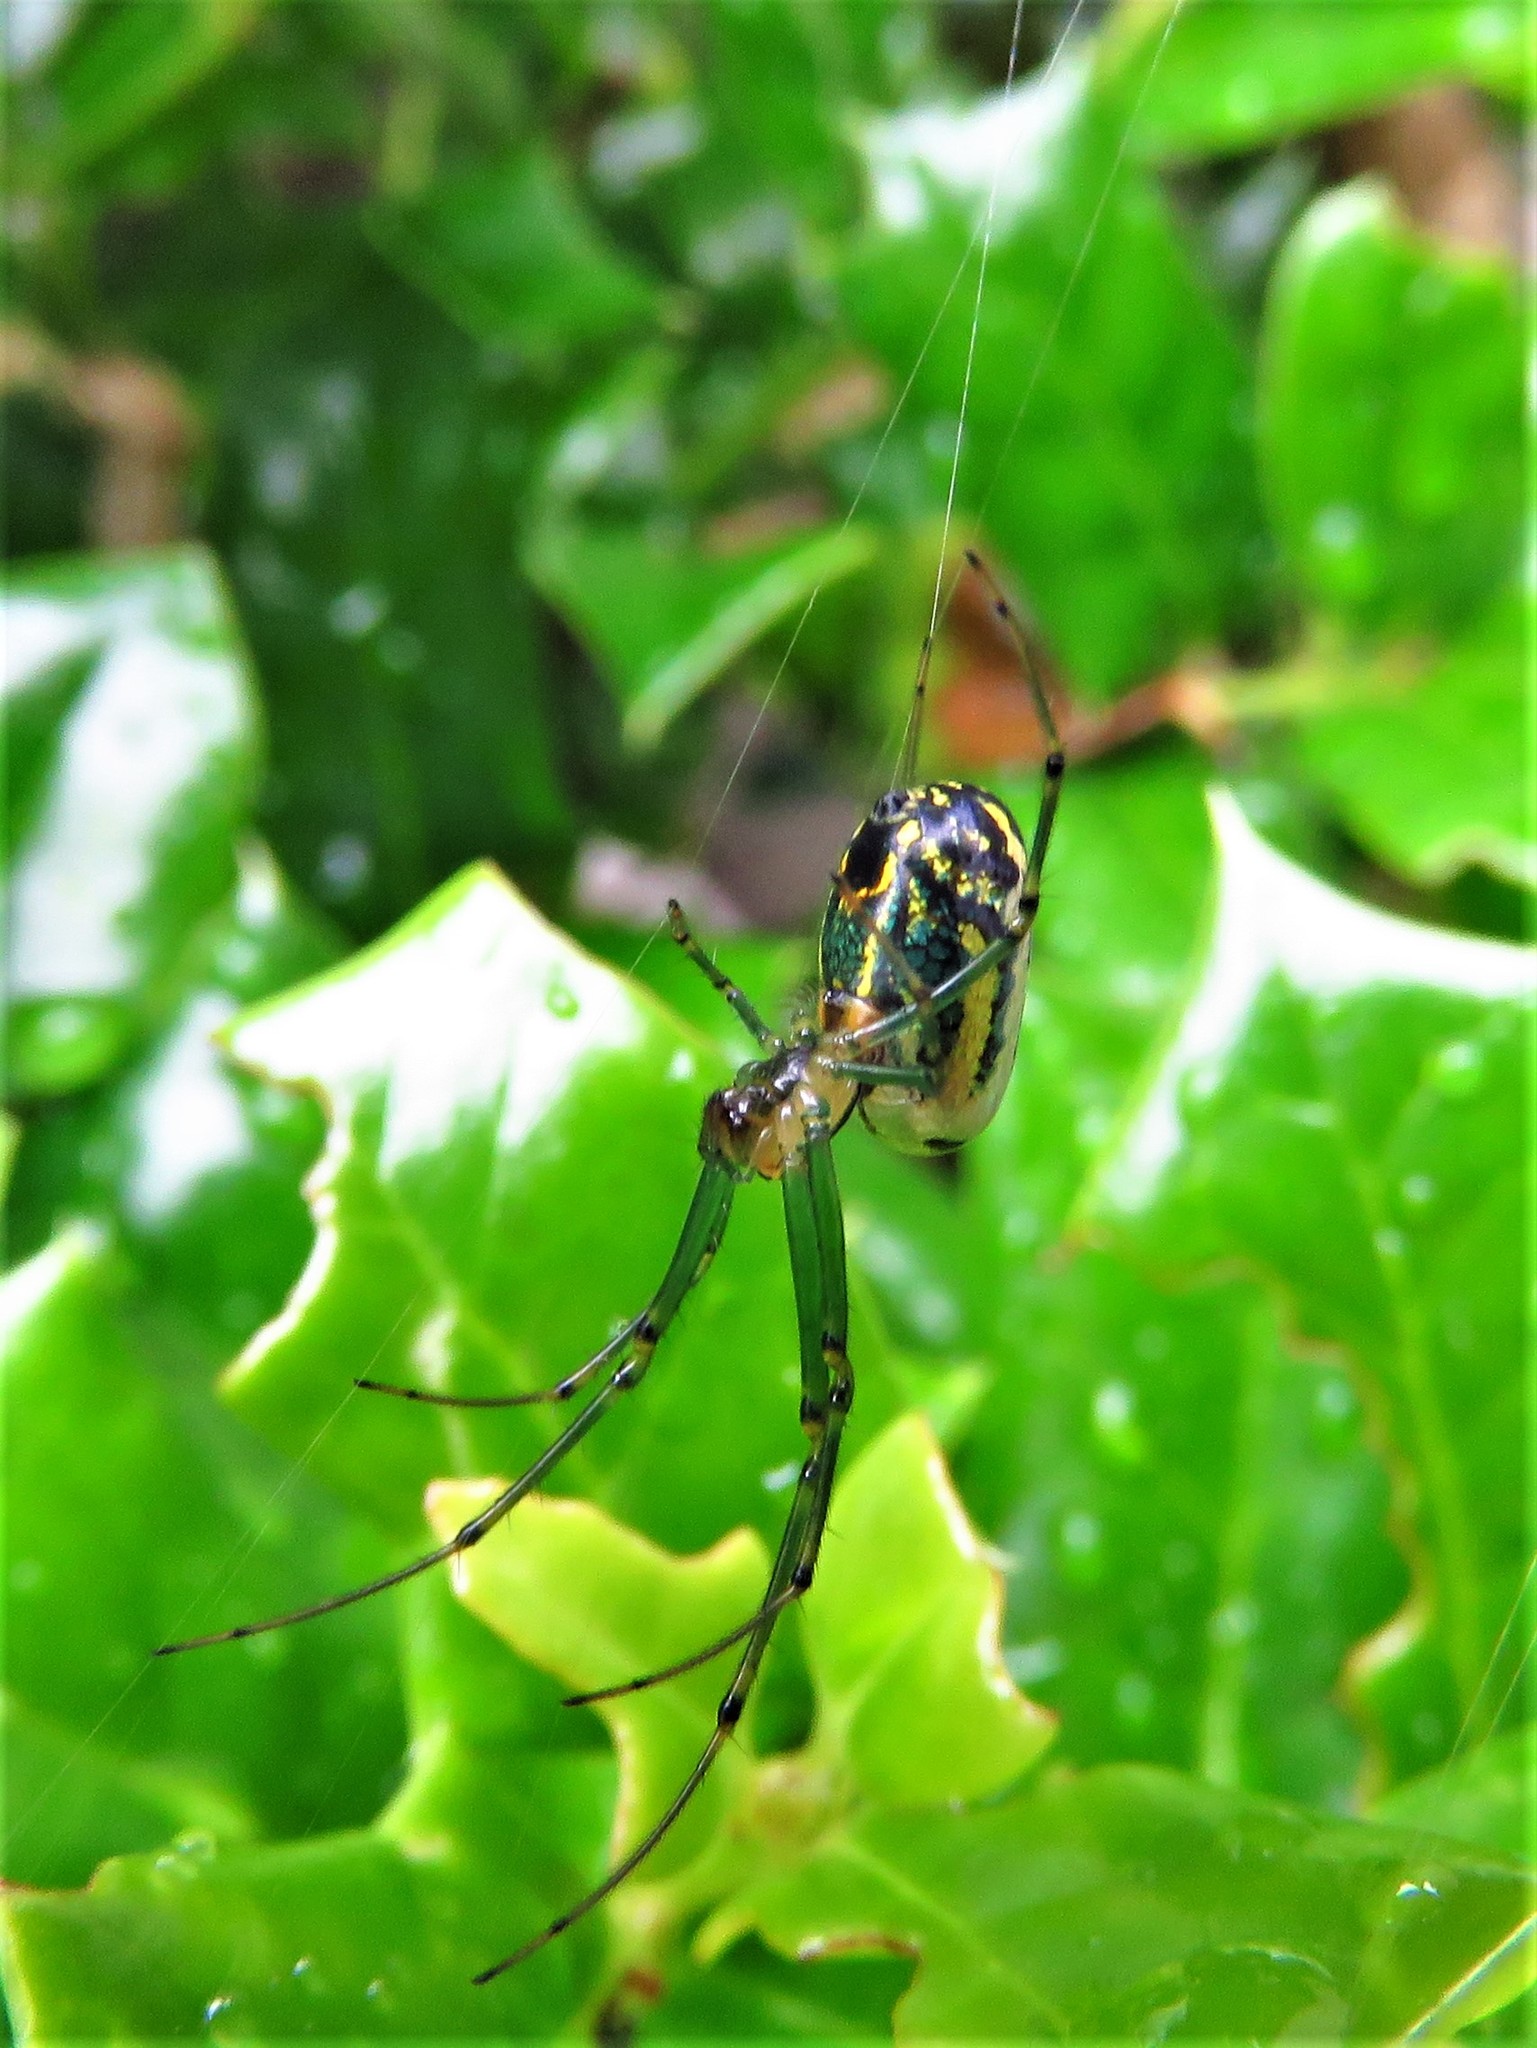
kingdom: Animalia
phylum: Arthropoda
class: Arachnida
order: Araneae
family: Tetragnathidae
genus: Leucauge
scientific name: Leucauge venusta
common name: Longjawed orb weavers
